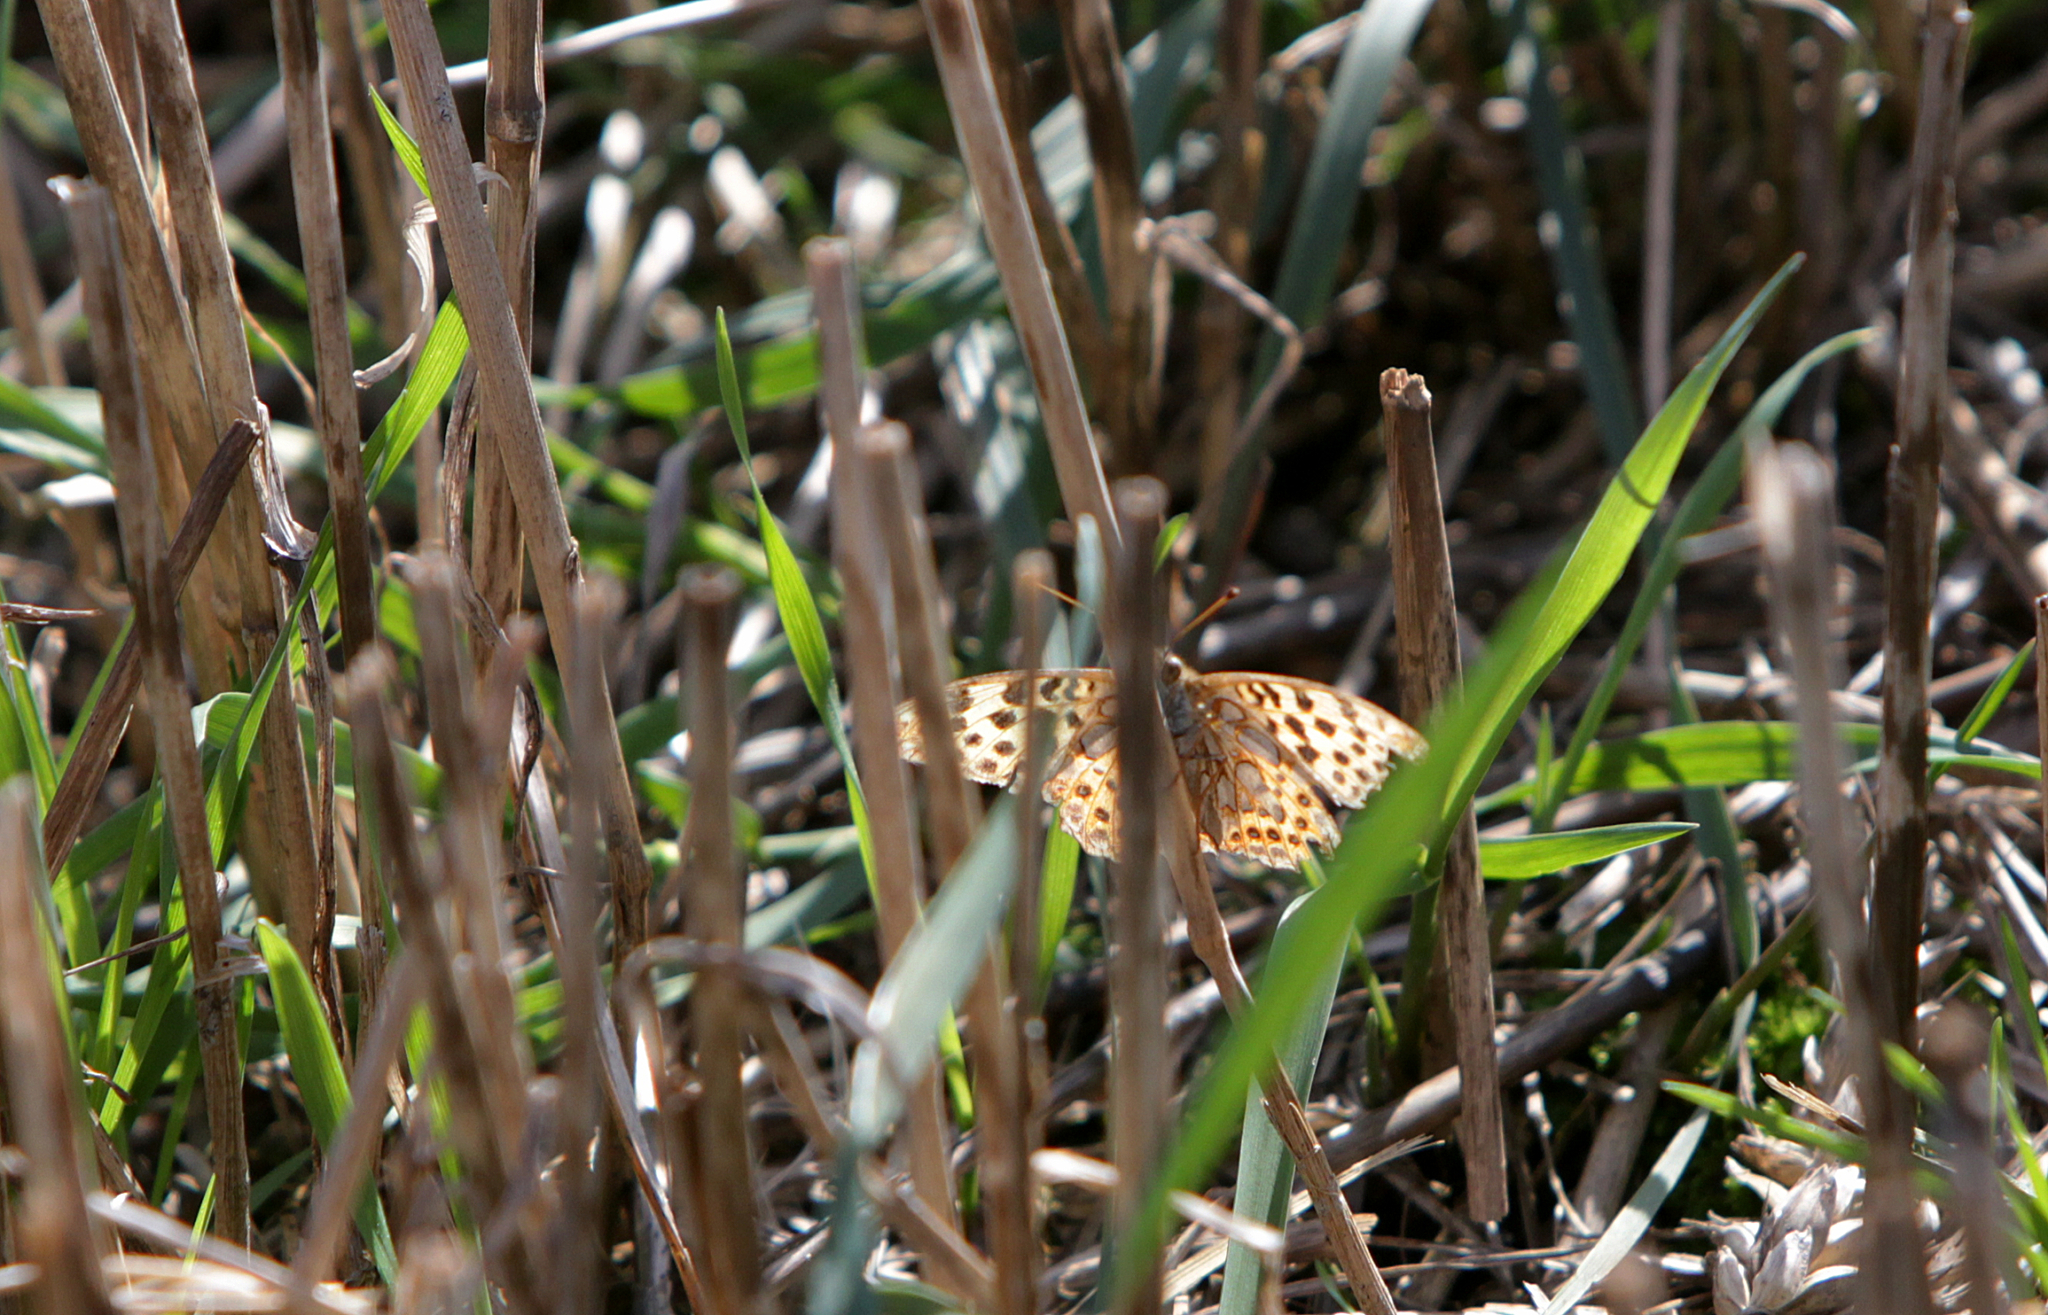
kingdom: Animalia
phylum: Arthropoda
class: Insecta
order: Lepidoptera
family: Nymphalidae
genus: Issoria
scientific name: Issoria lathonia
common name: Queen of spain fritillary
